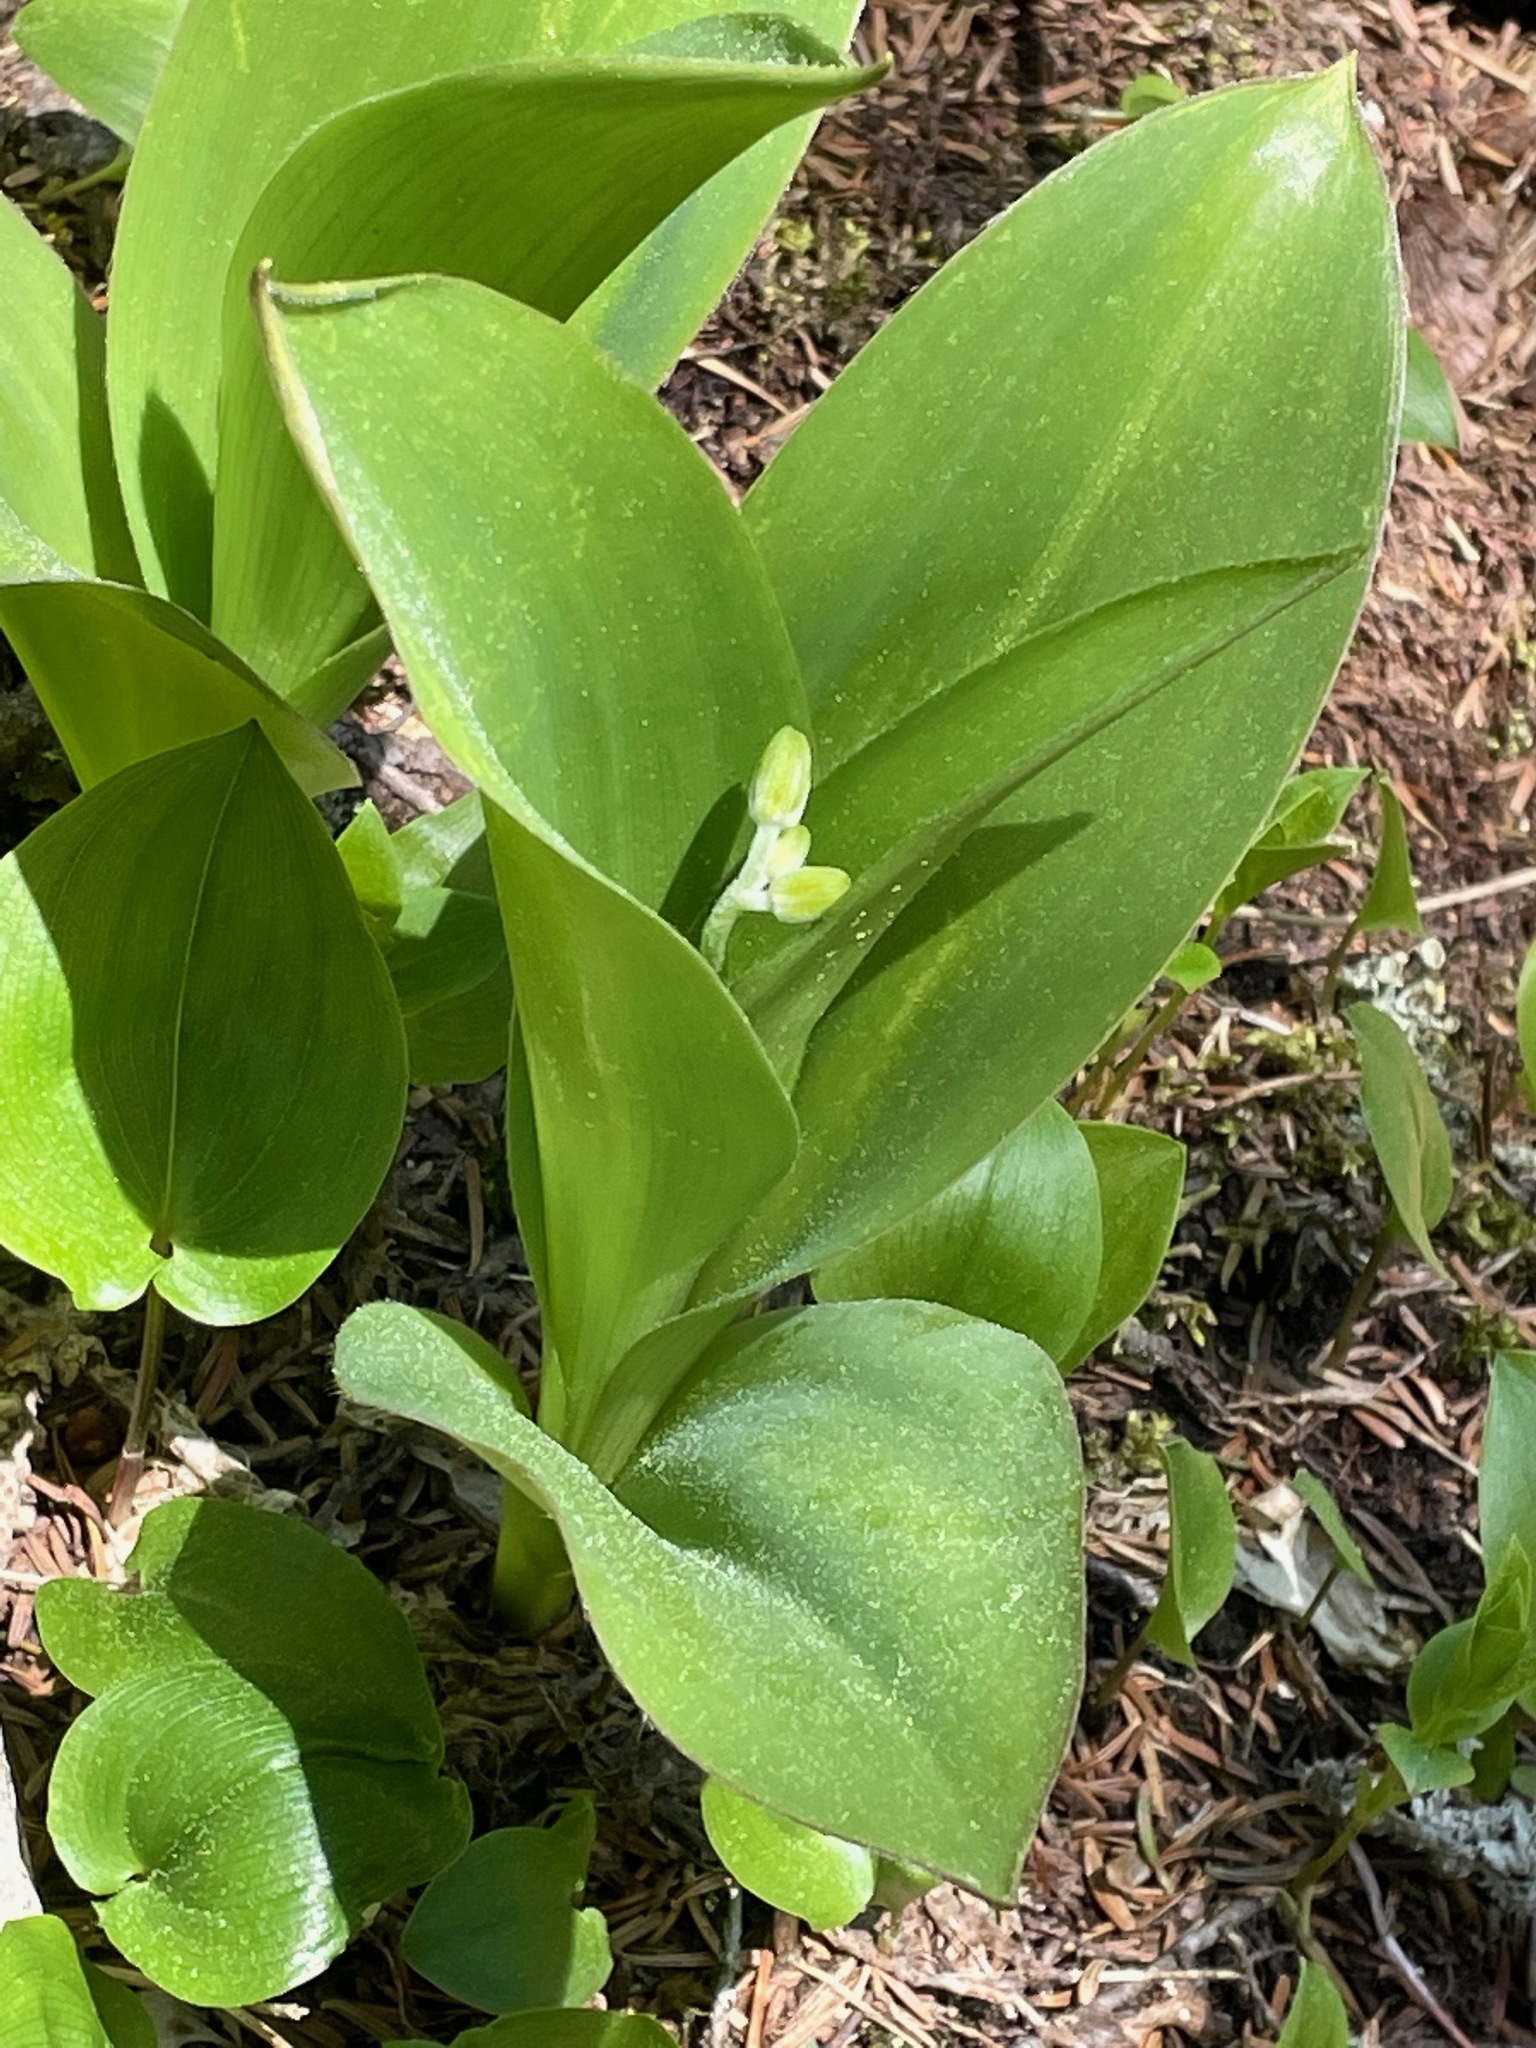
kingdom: Plantae
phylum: Tracheophyta
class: Liliopsida
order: Liliales
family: Liliaceae
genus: Clintonia
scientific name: Clintonia borealis
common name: Yellow clintonia
